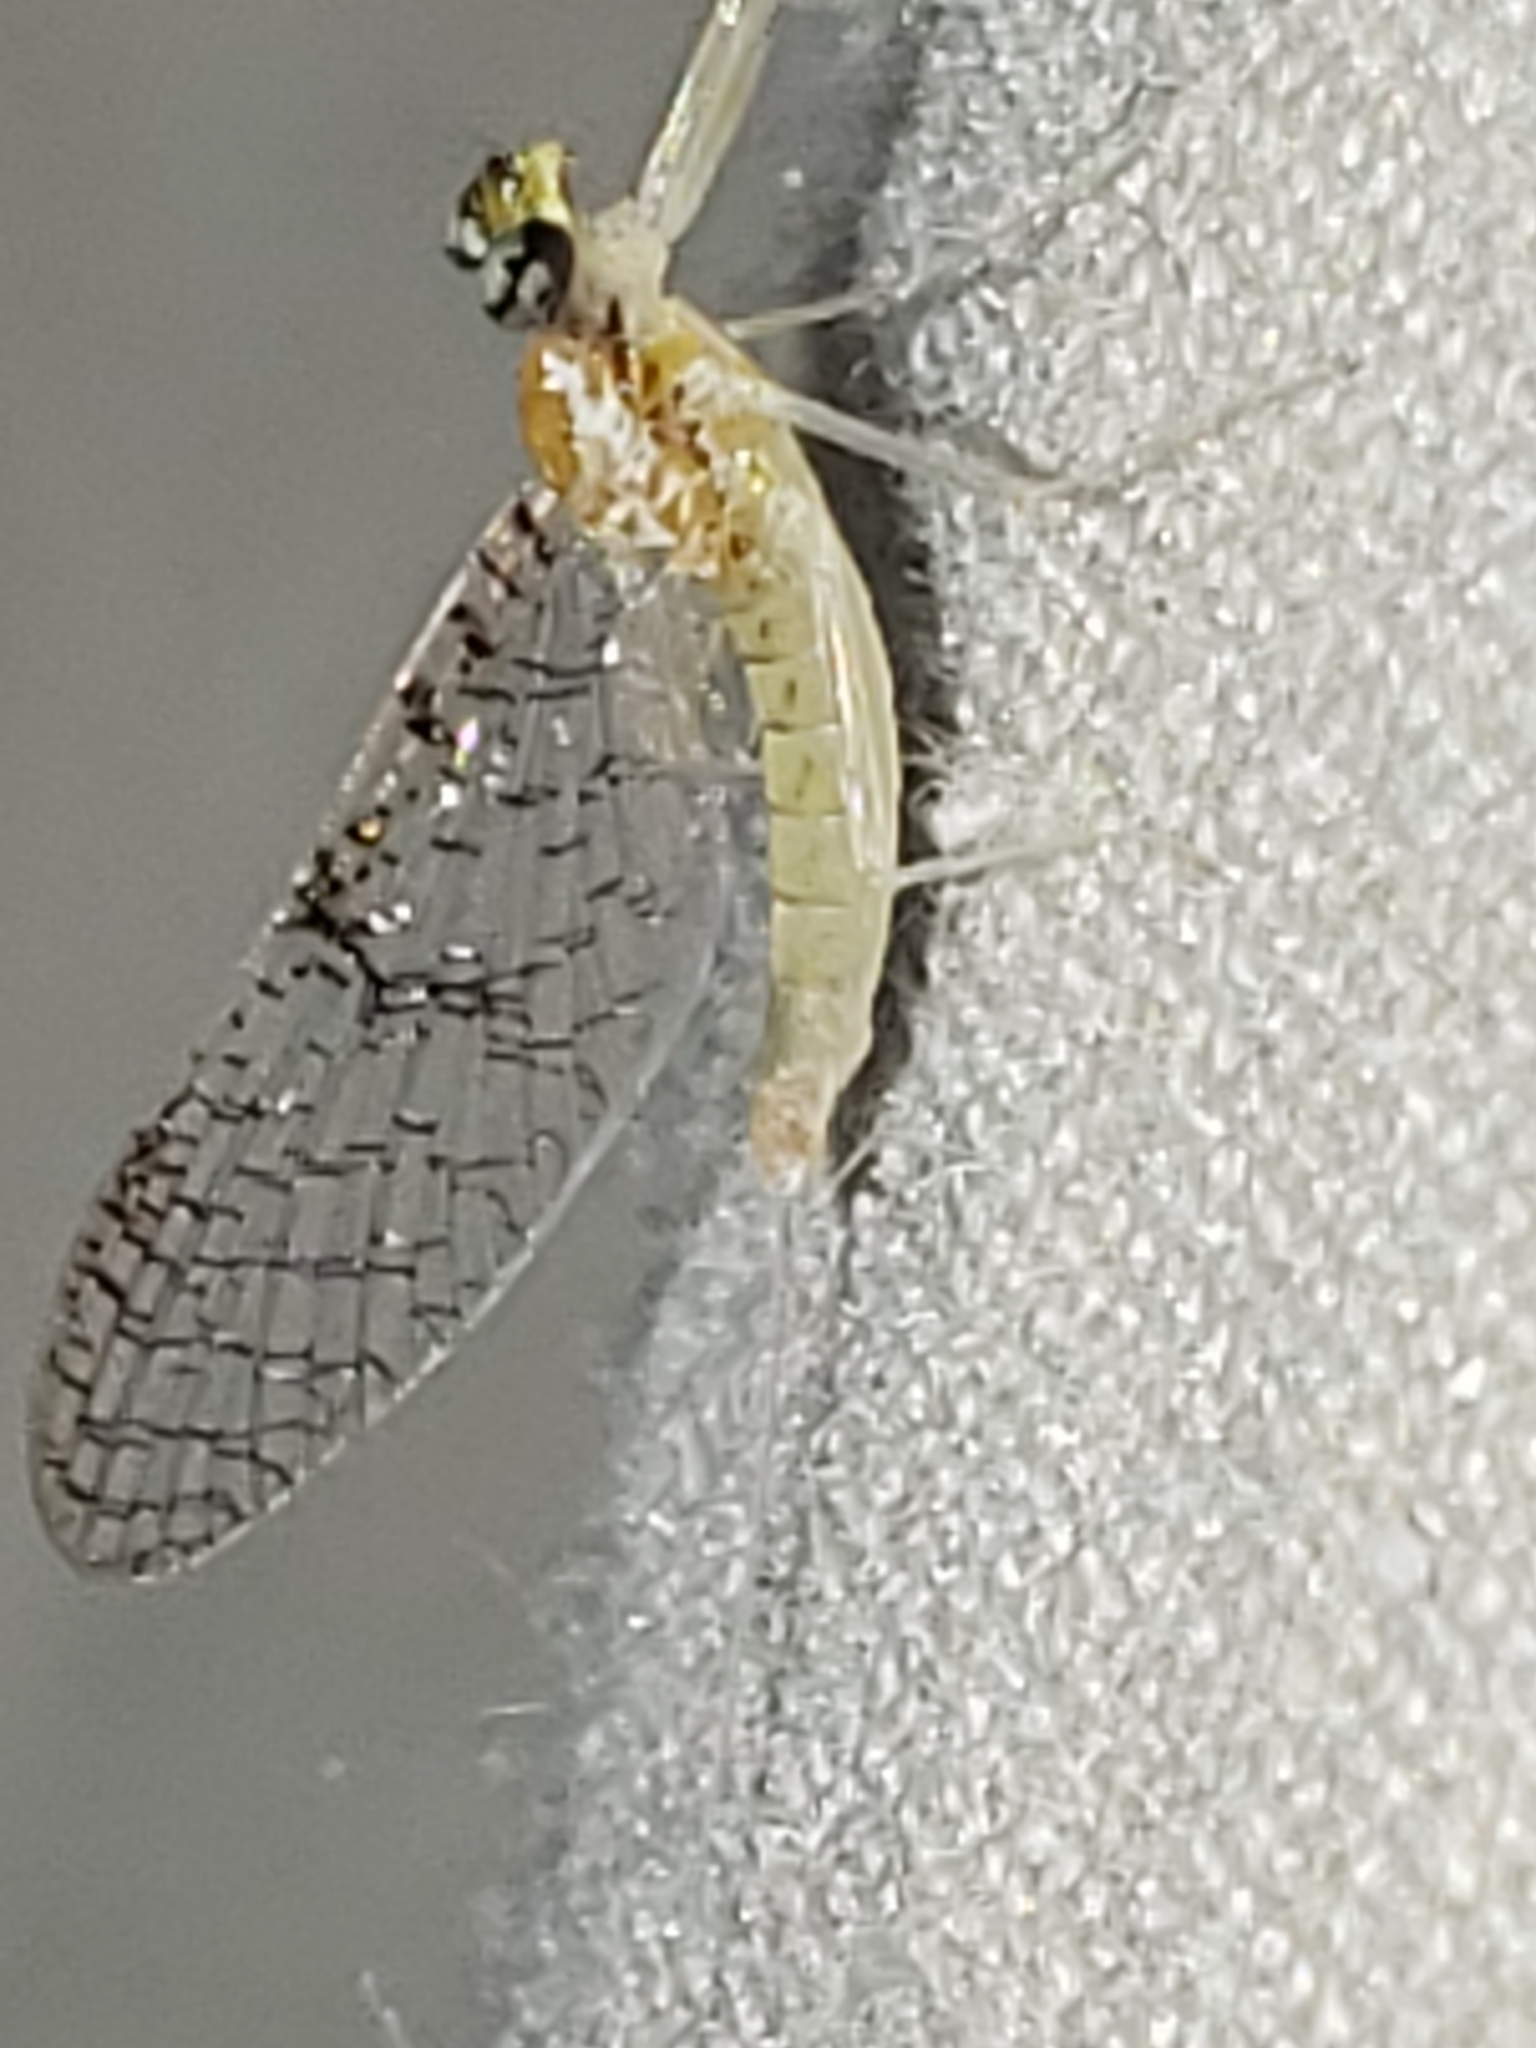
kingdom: Animalia
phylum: Arthropoda
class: Insecta
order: Ephemeroptera
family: Heptageniidae
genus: Leucrocuta
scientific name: Leucrocuta minerva
